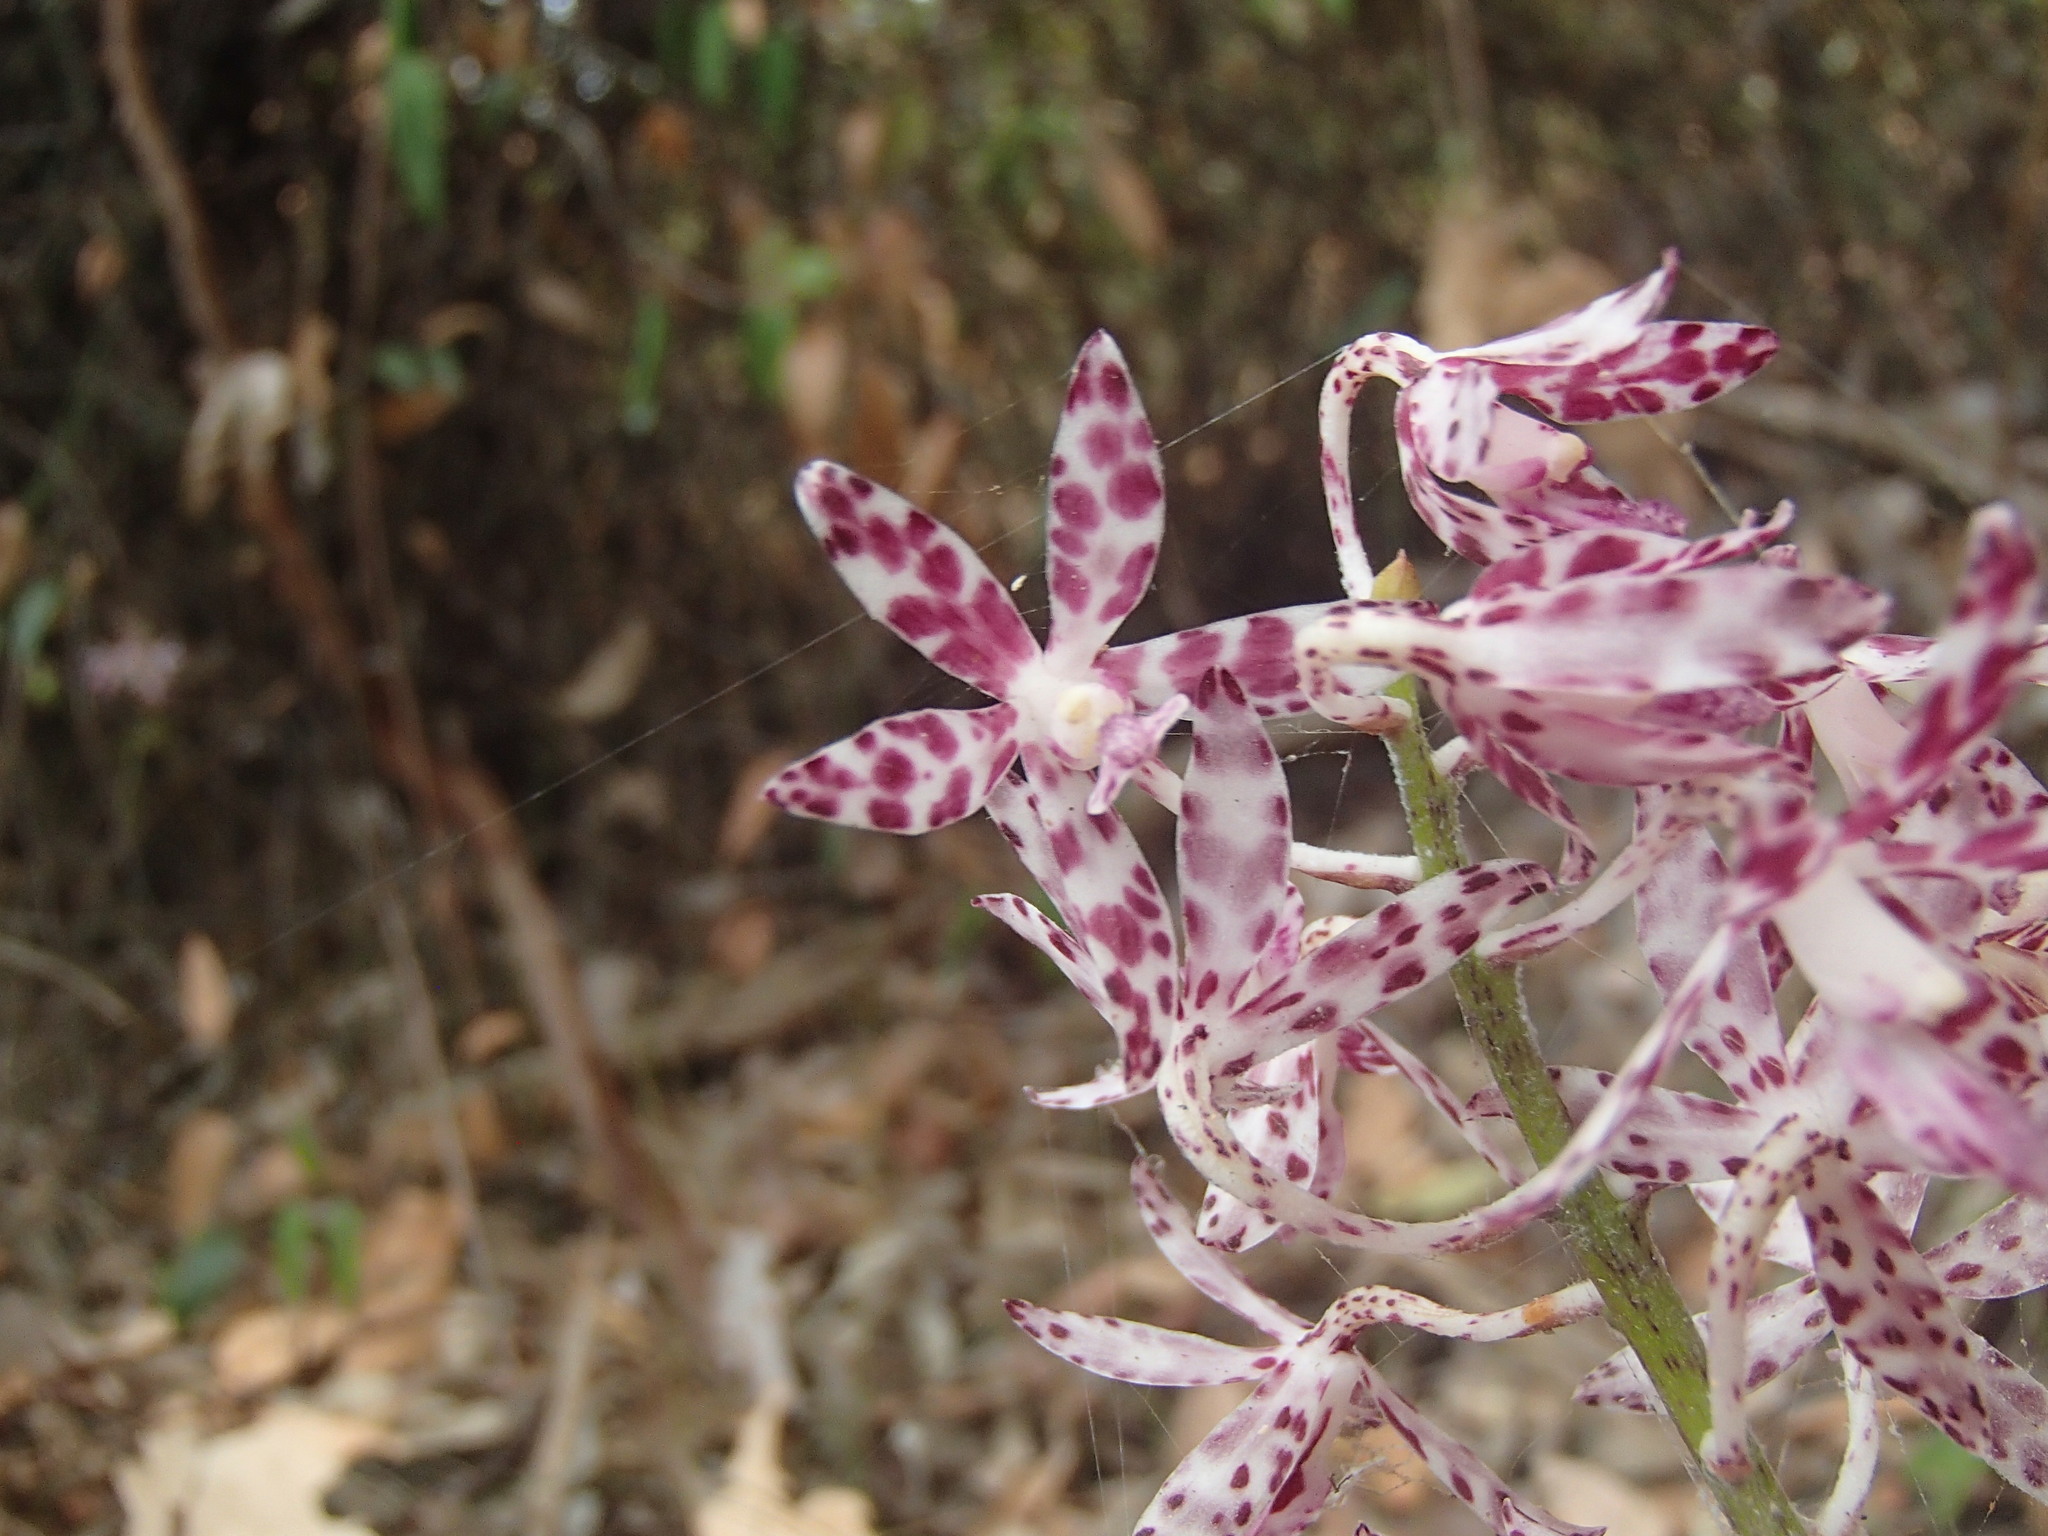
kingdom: Plantae
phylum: Tracheophyta
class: Liliopsida
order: Asparagales
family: Orchidaceae
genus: Dipodium
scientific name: Dipodium variegatum
